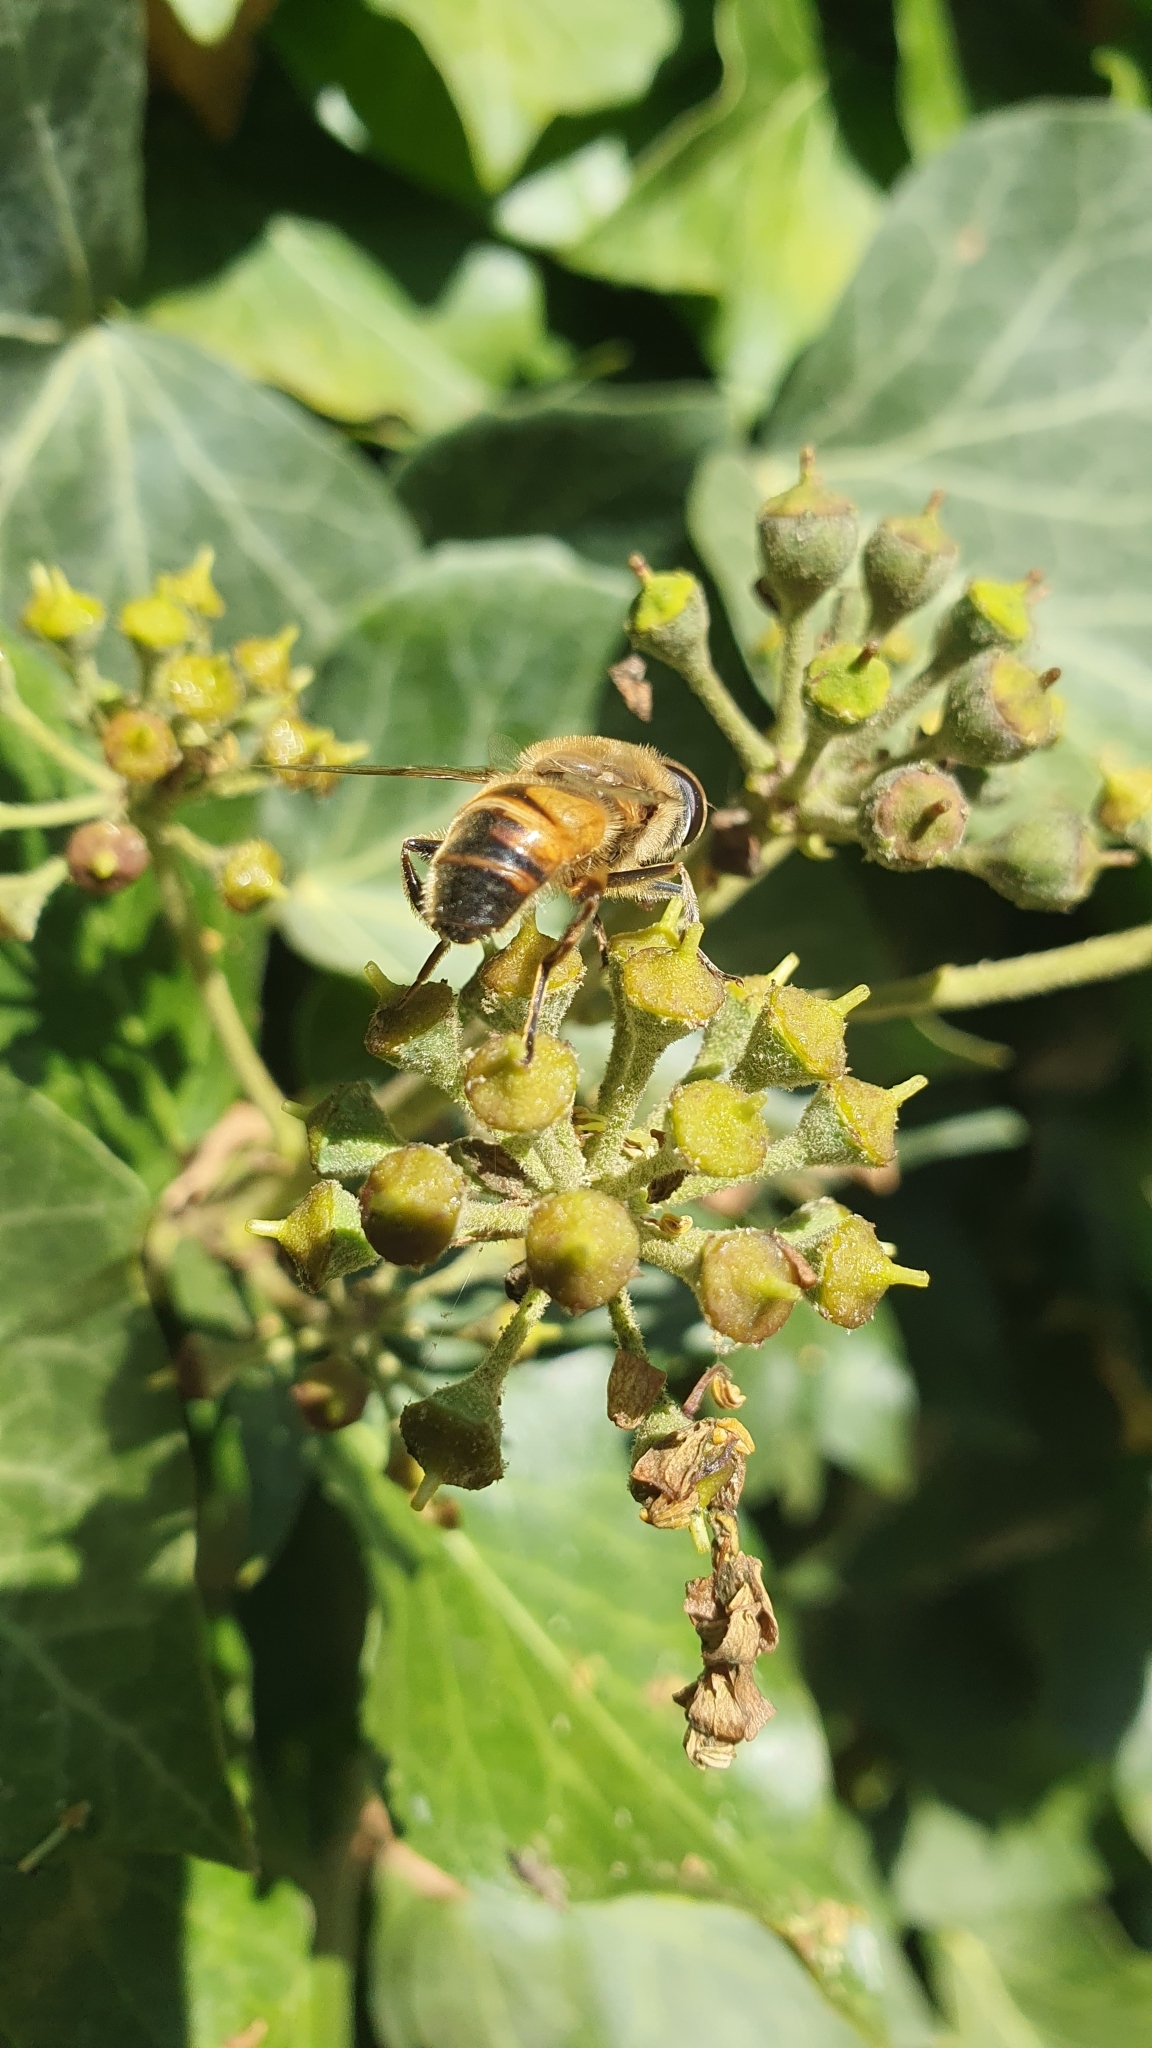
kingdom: Animalia
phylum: Arthropoda
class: Insecta
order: Diptera
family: Syrphidae
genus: Eristalis
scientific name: Eristalis tenax
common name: Drone fly
